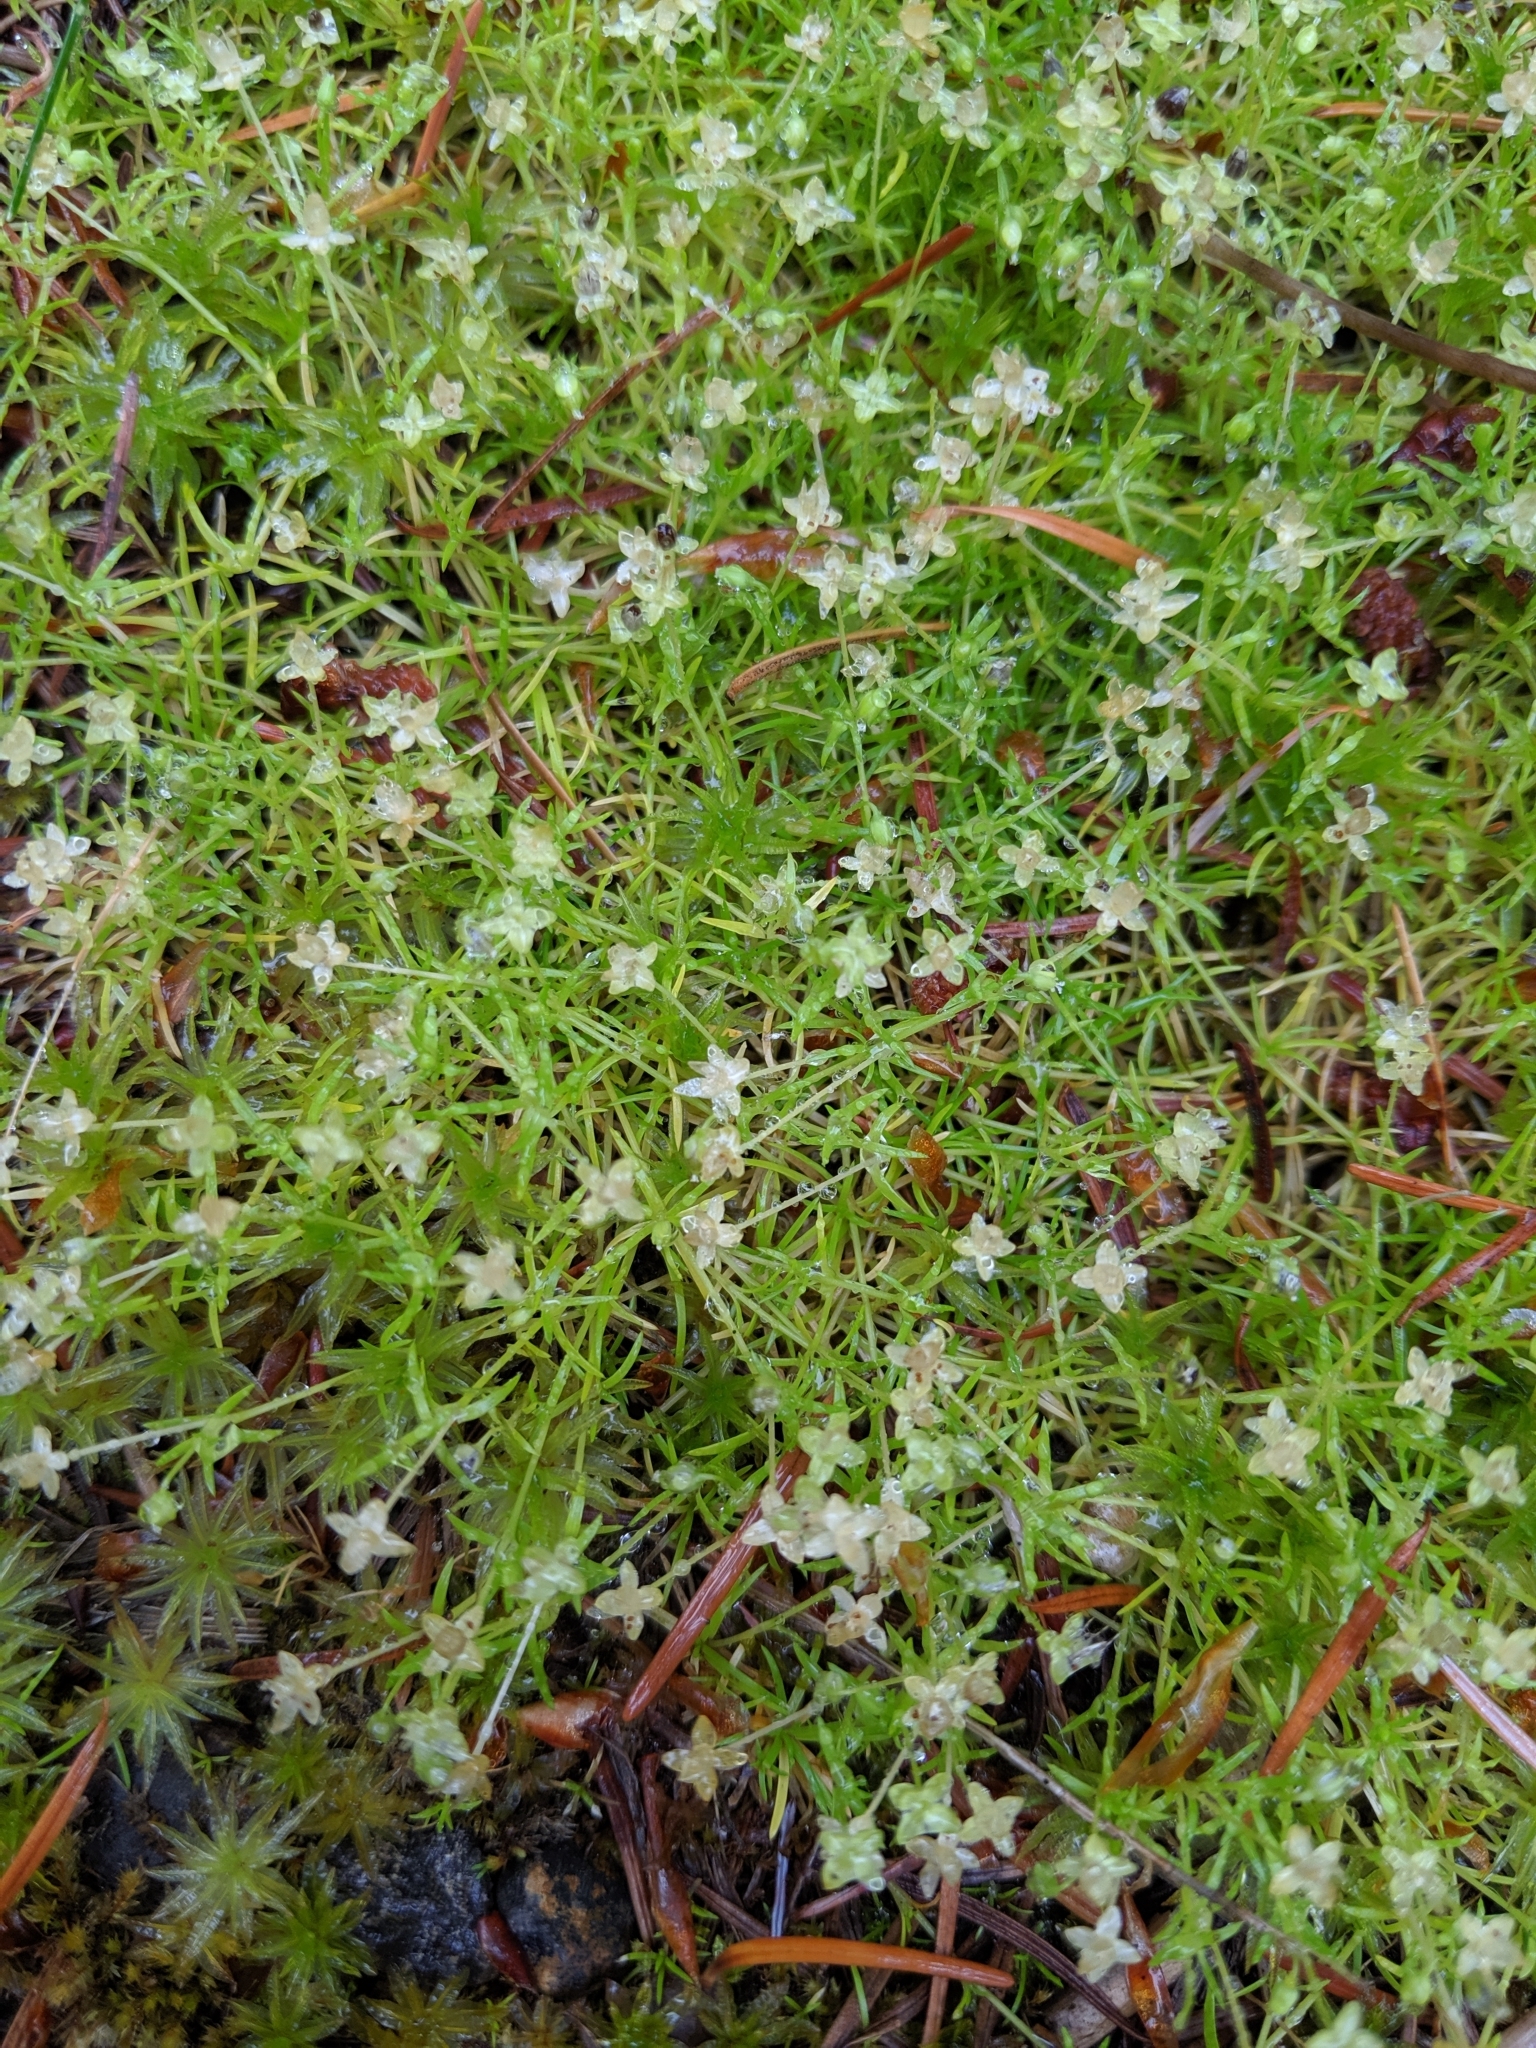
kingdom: Plantae
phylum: Tracheophyta
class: Magnoliopsida
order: Caryophyllales
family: Caryophyllaceae
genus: Sagina
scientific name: Sagina procumbens
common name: Procumbent pearlwort
